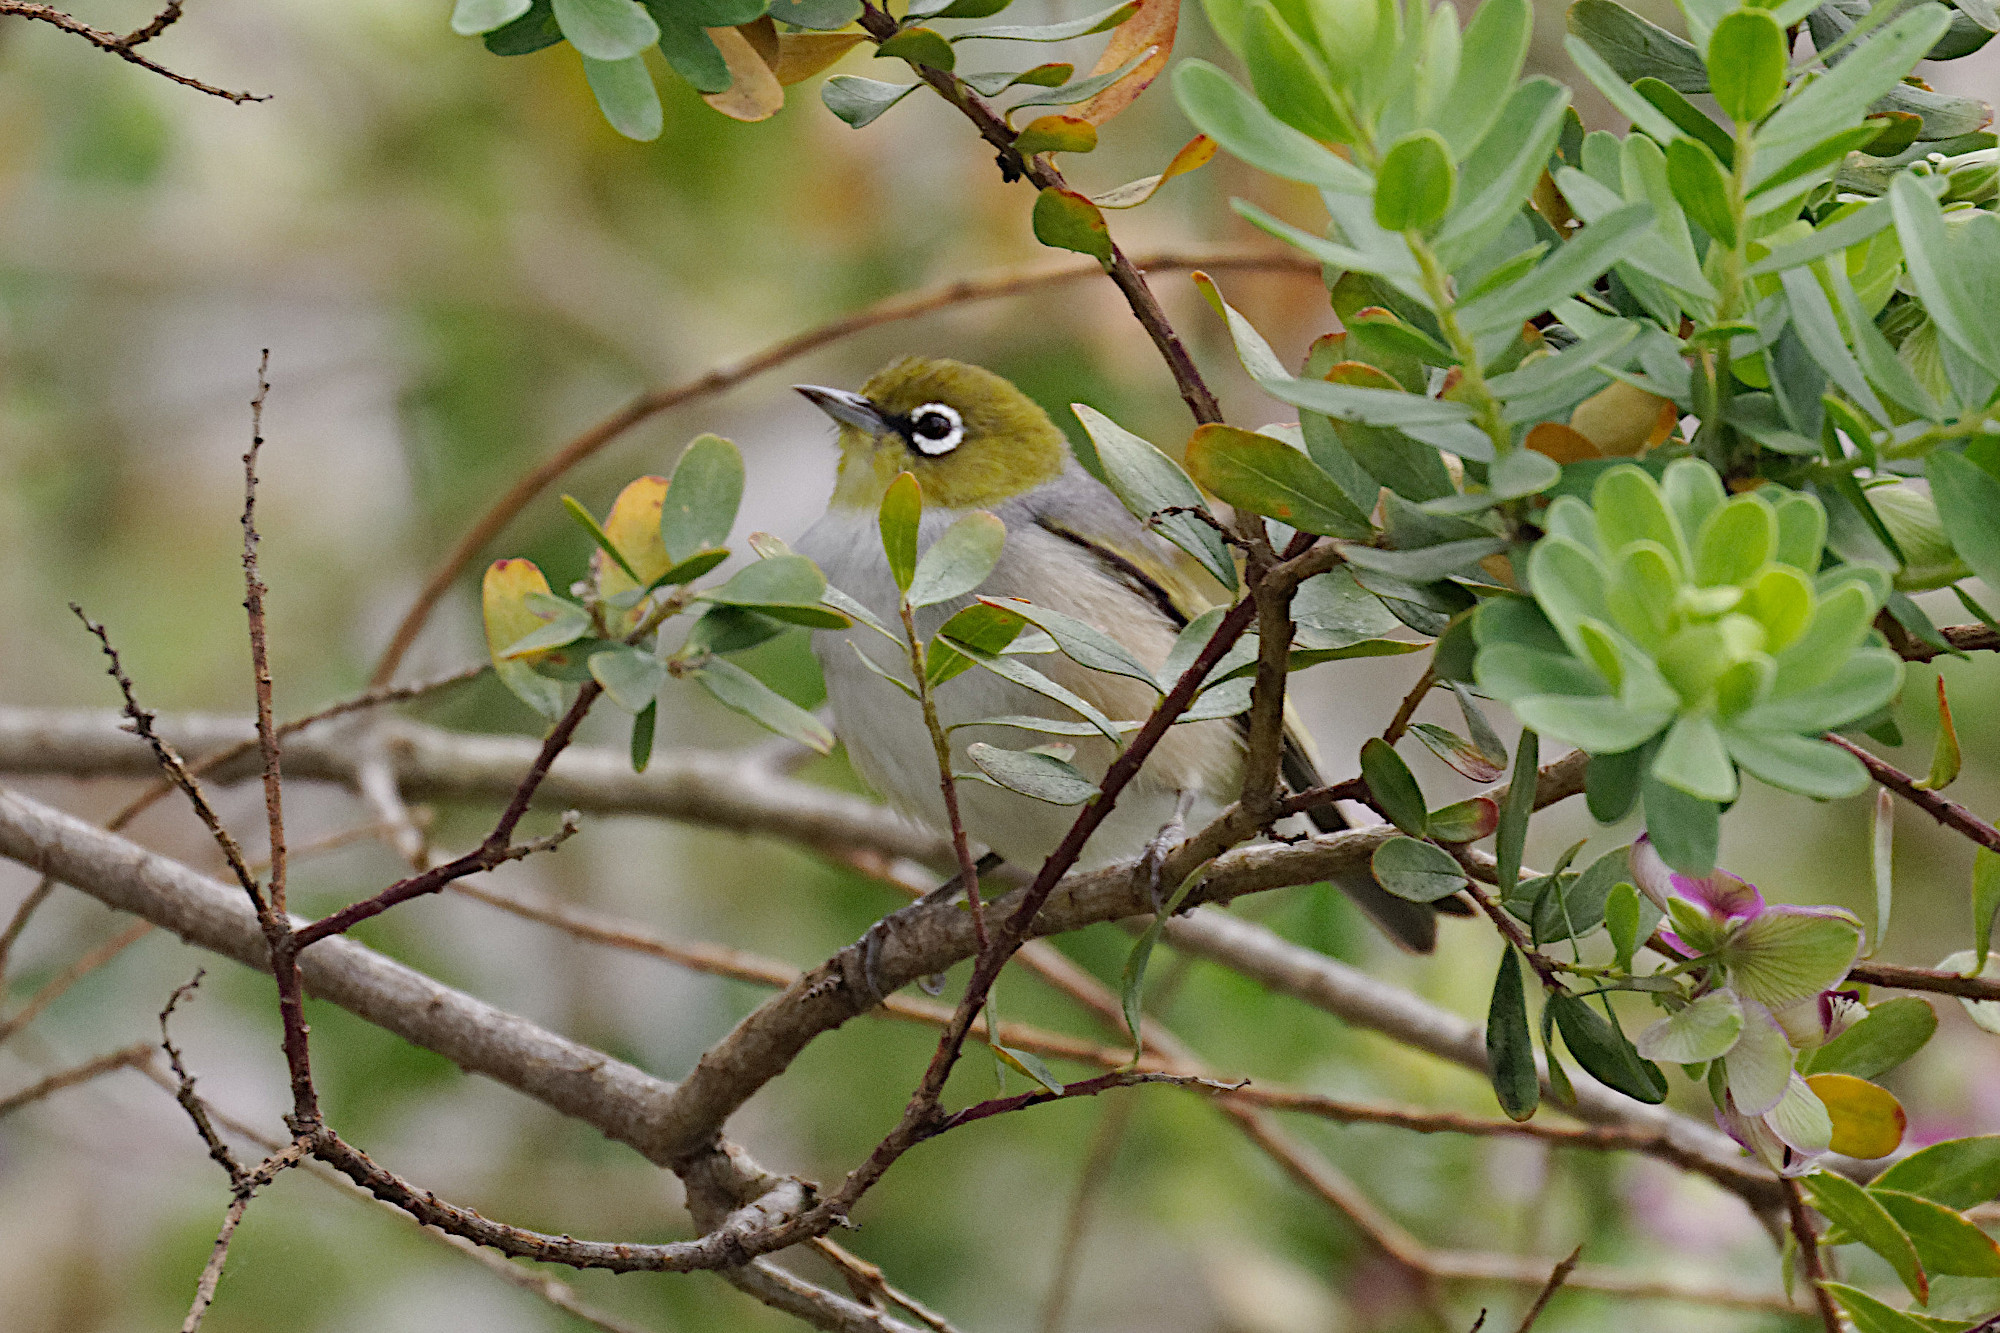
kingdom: Animalia
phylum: Chordata
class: Aves
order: Passeriformes
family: Zosteropidae
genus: Zosterops
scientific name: Zosterops lateralis
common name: Silvereye
